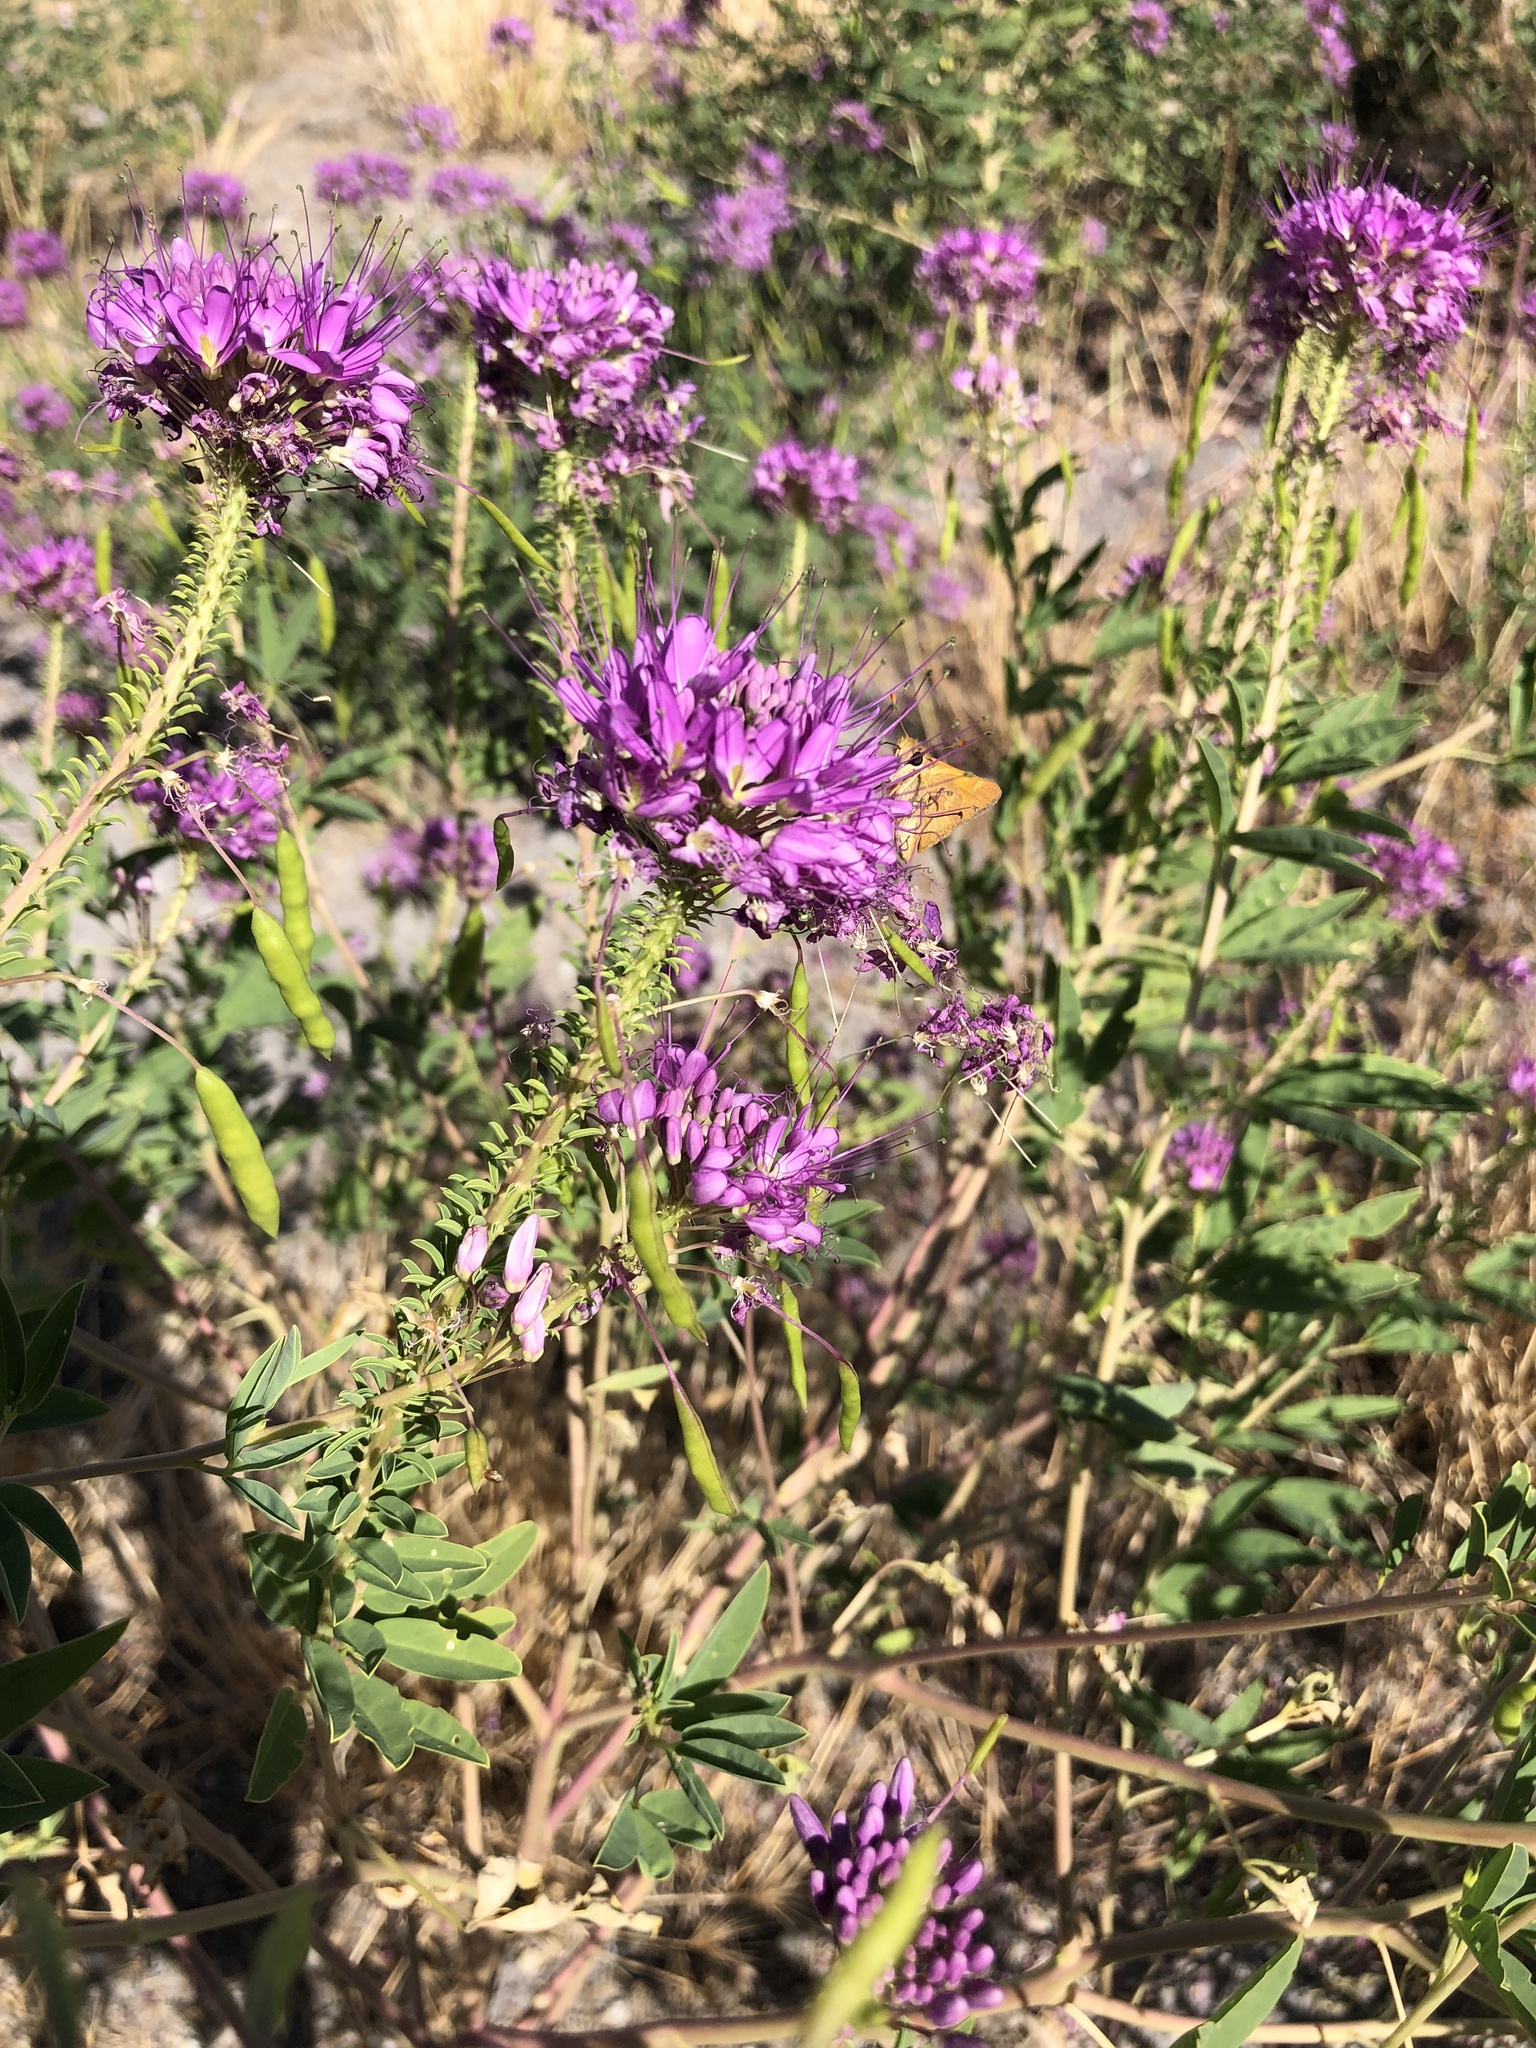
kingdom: Plantae
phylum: Tracheophyta
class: Magnoliopsida
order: Brassicales
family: Cleomaceae
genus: Cleomella
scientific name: Cleomella serrulata
